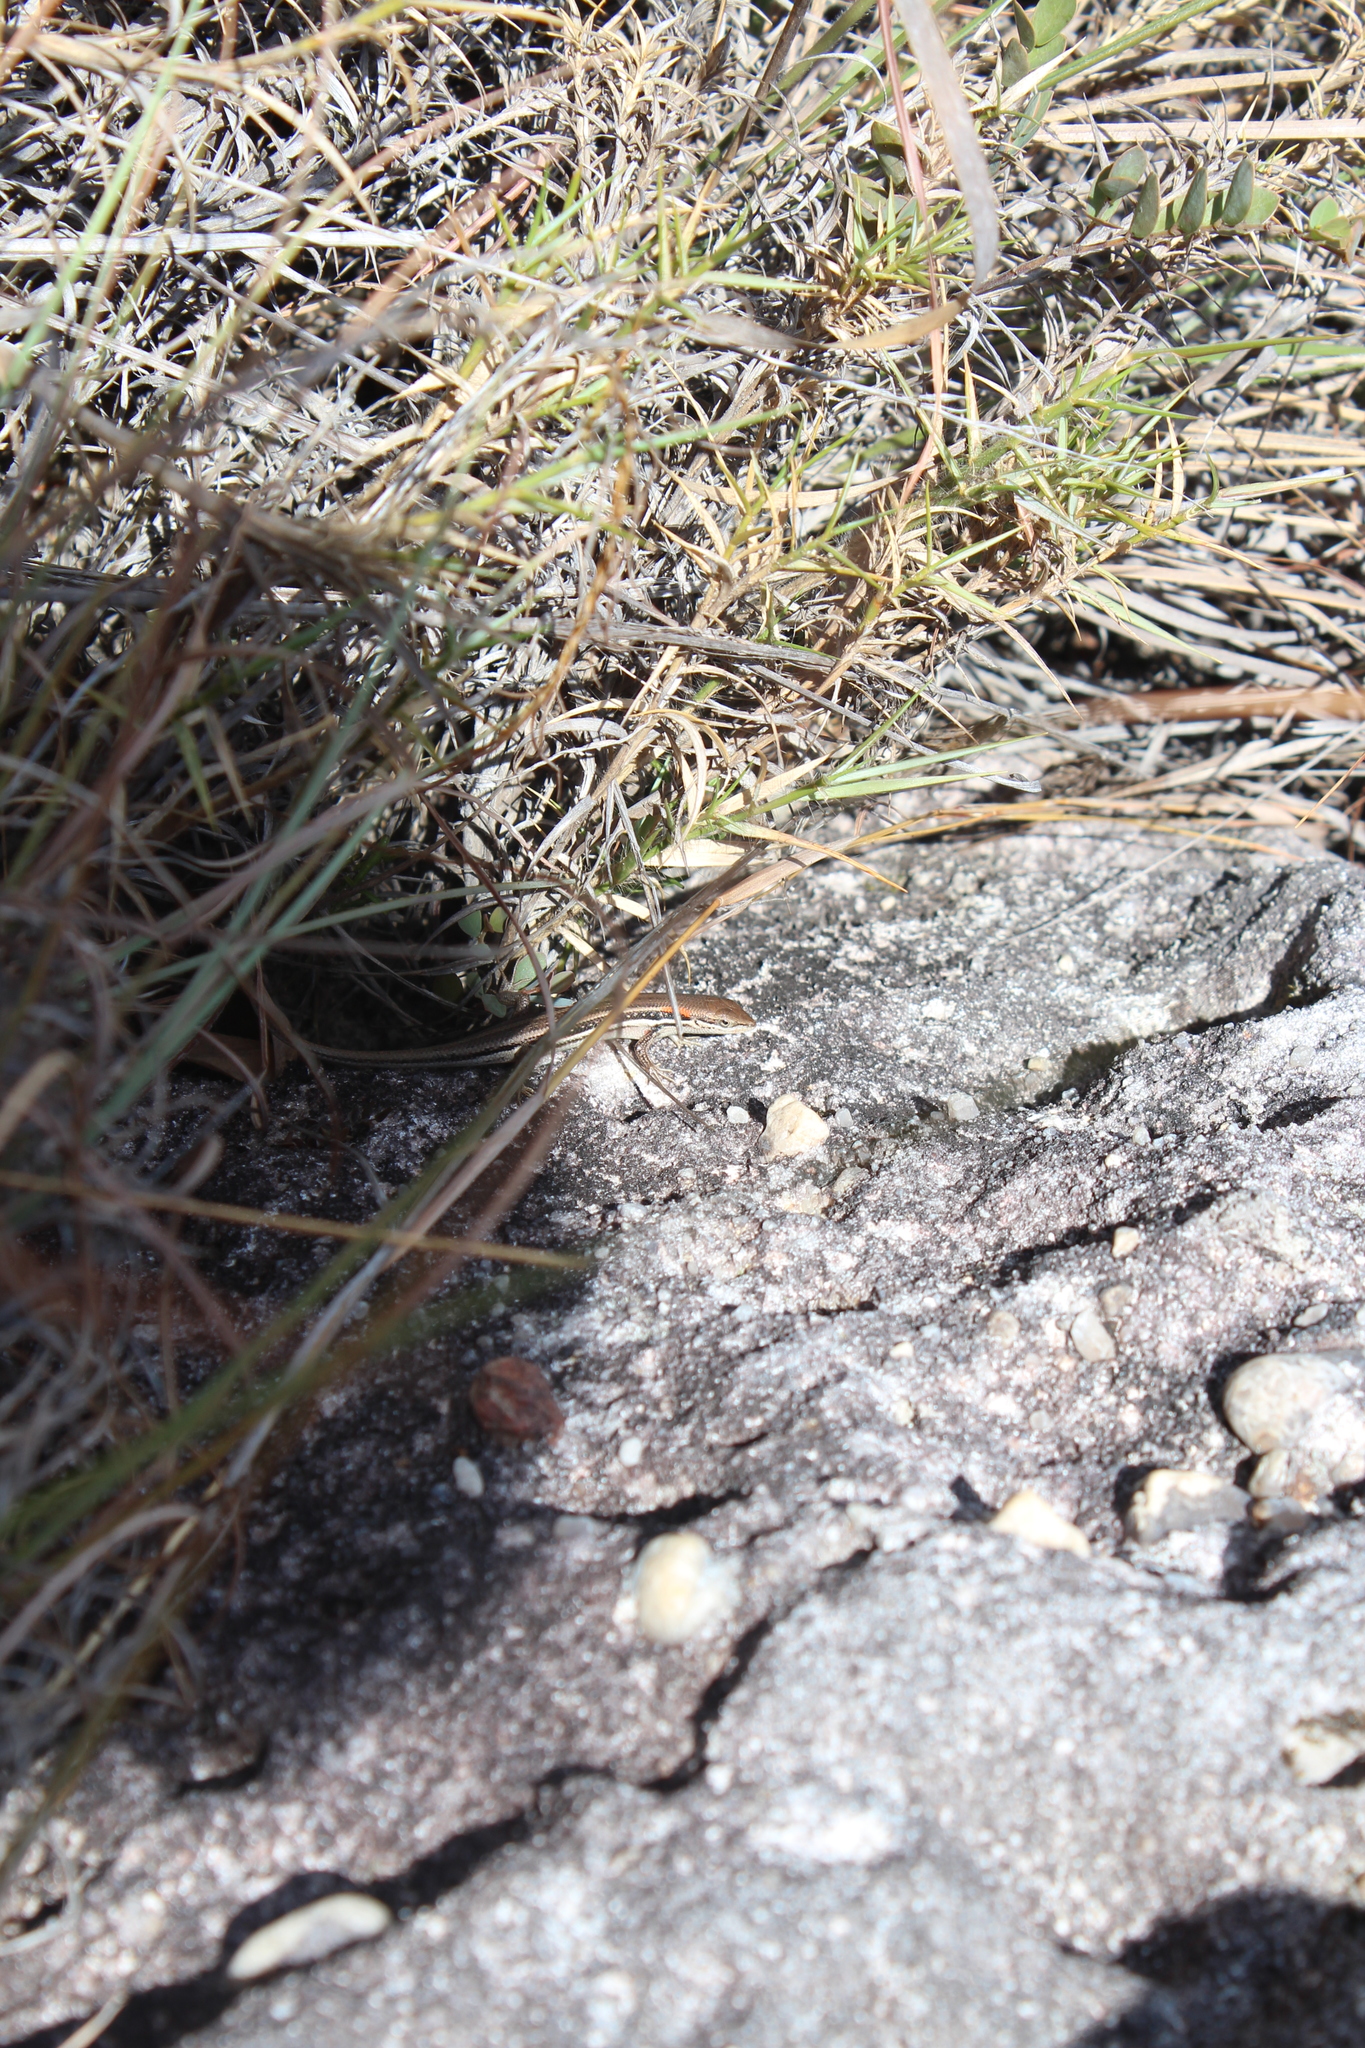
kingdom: Animalia
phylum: Chordata
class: Squamata
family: Scincidae
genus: Trachylepis
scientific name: Trachylepis elegans
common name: Elegant mabuya
